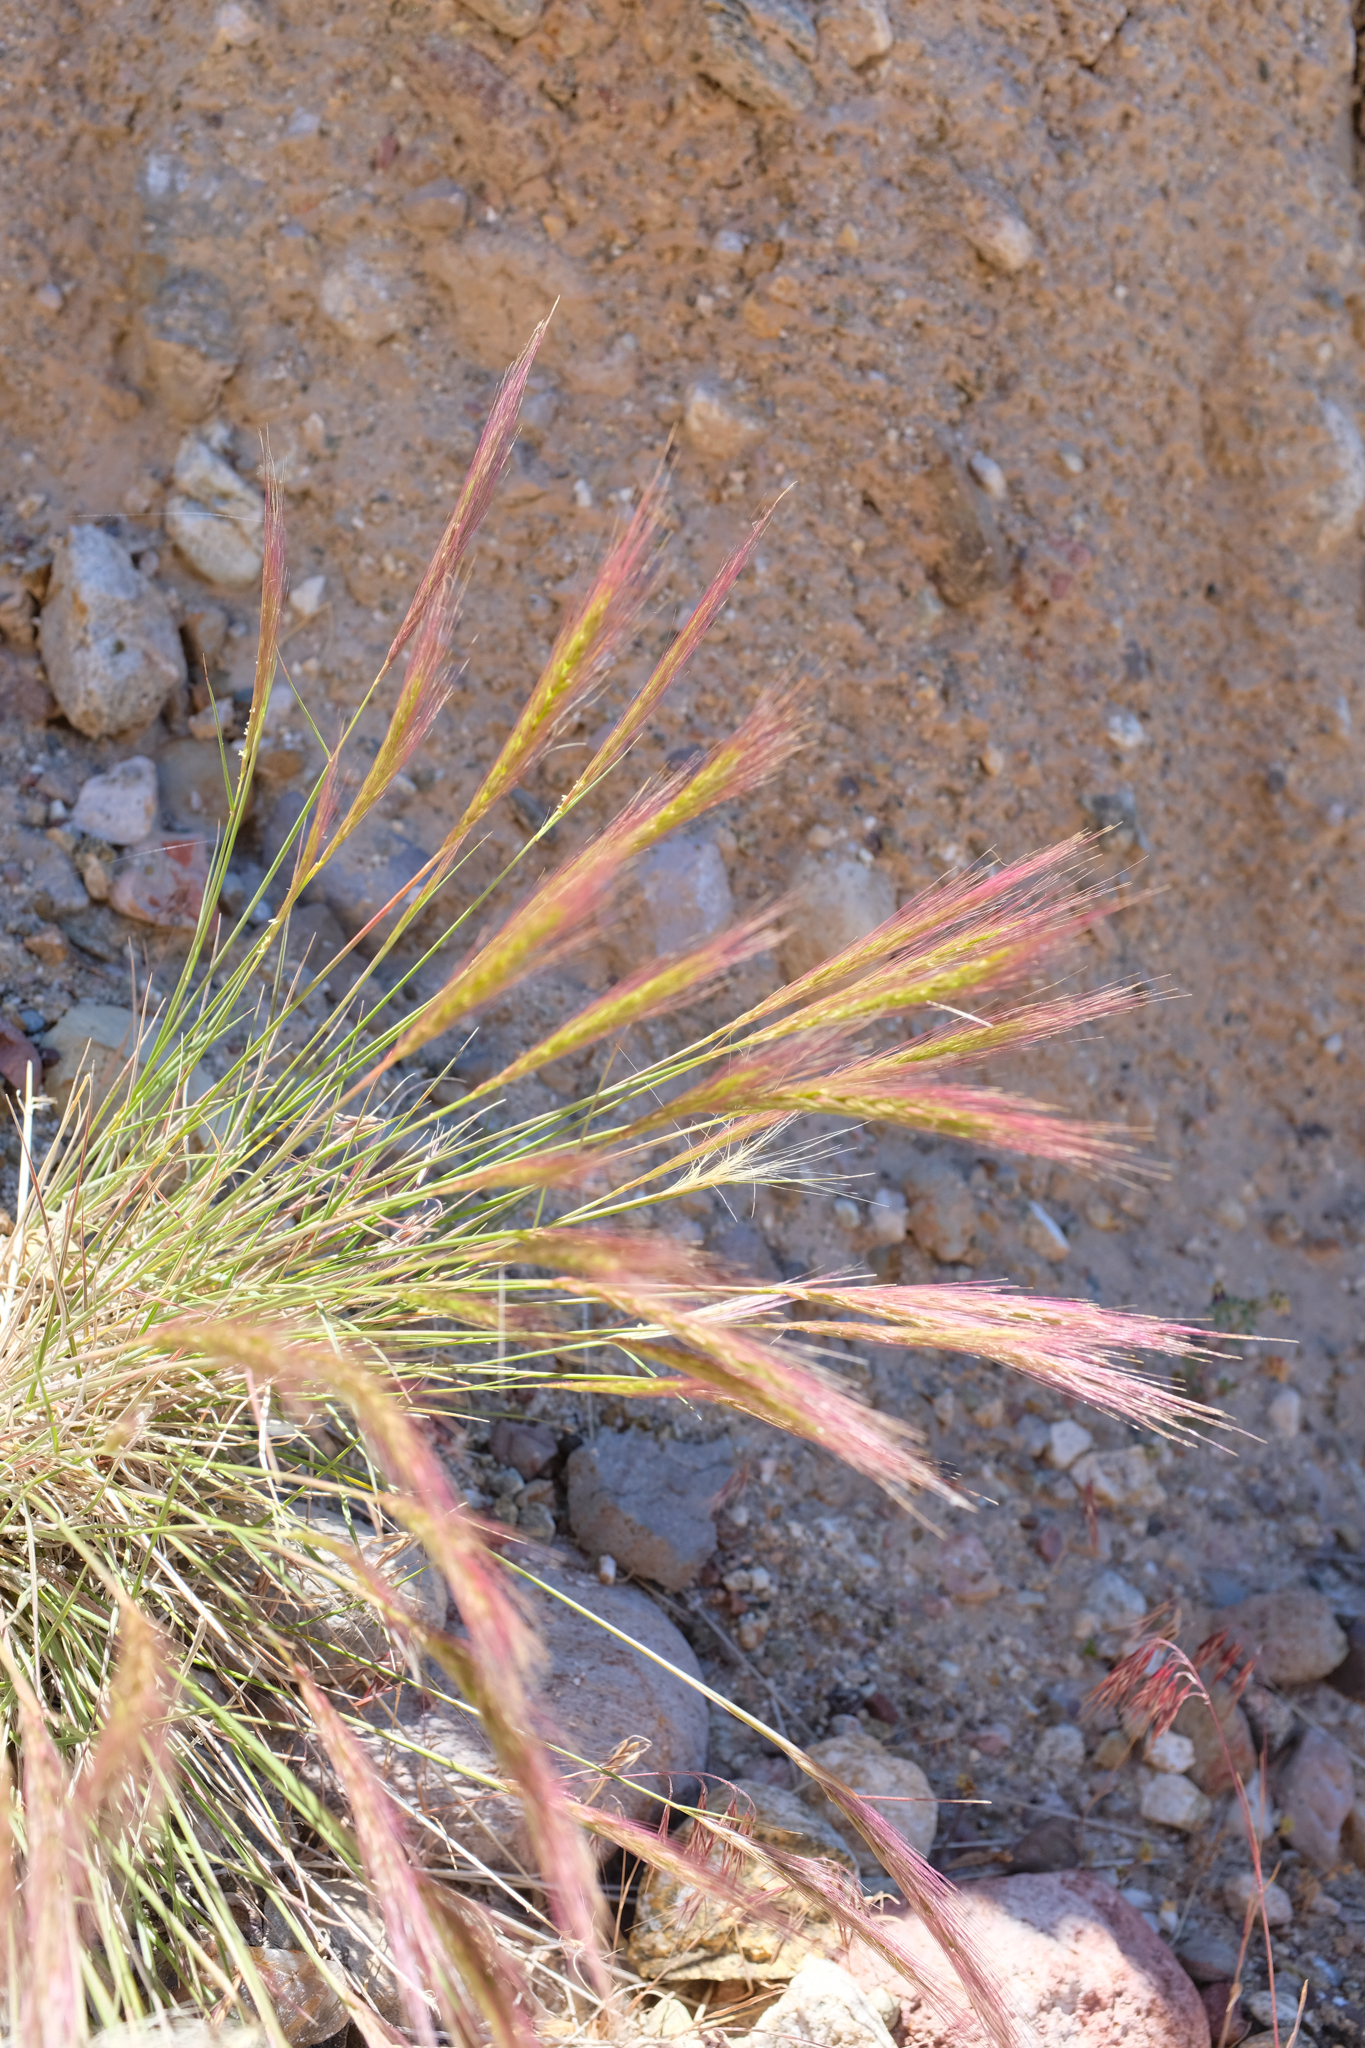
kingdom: Plantae
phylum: Tracheophyta
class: Liliopsida
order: Poales
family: Poaceae
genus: Elymus
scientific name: Elymus elymoides
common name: Bottlebrush squirreltail
